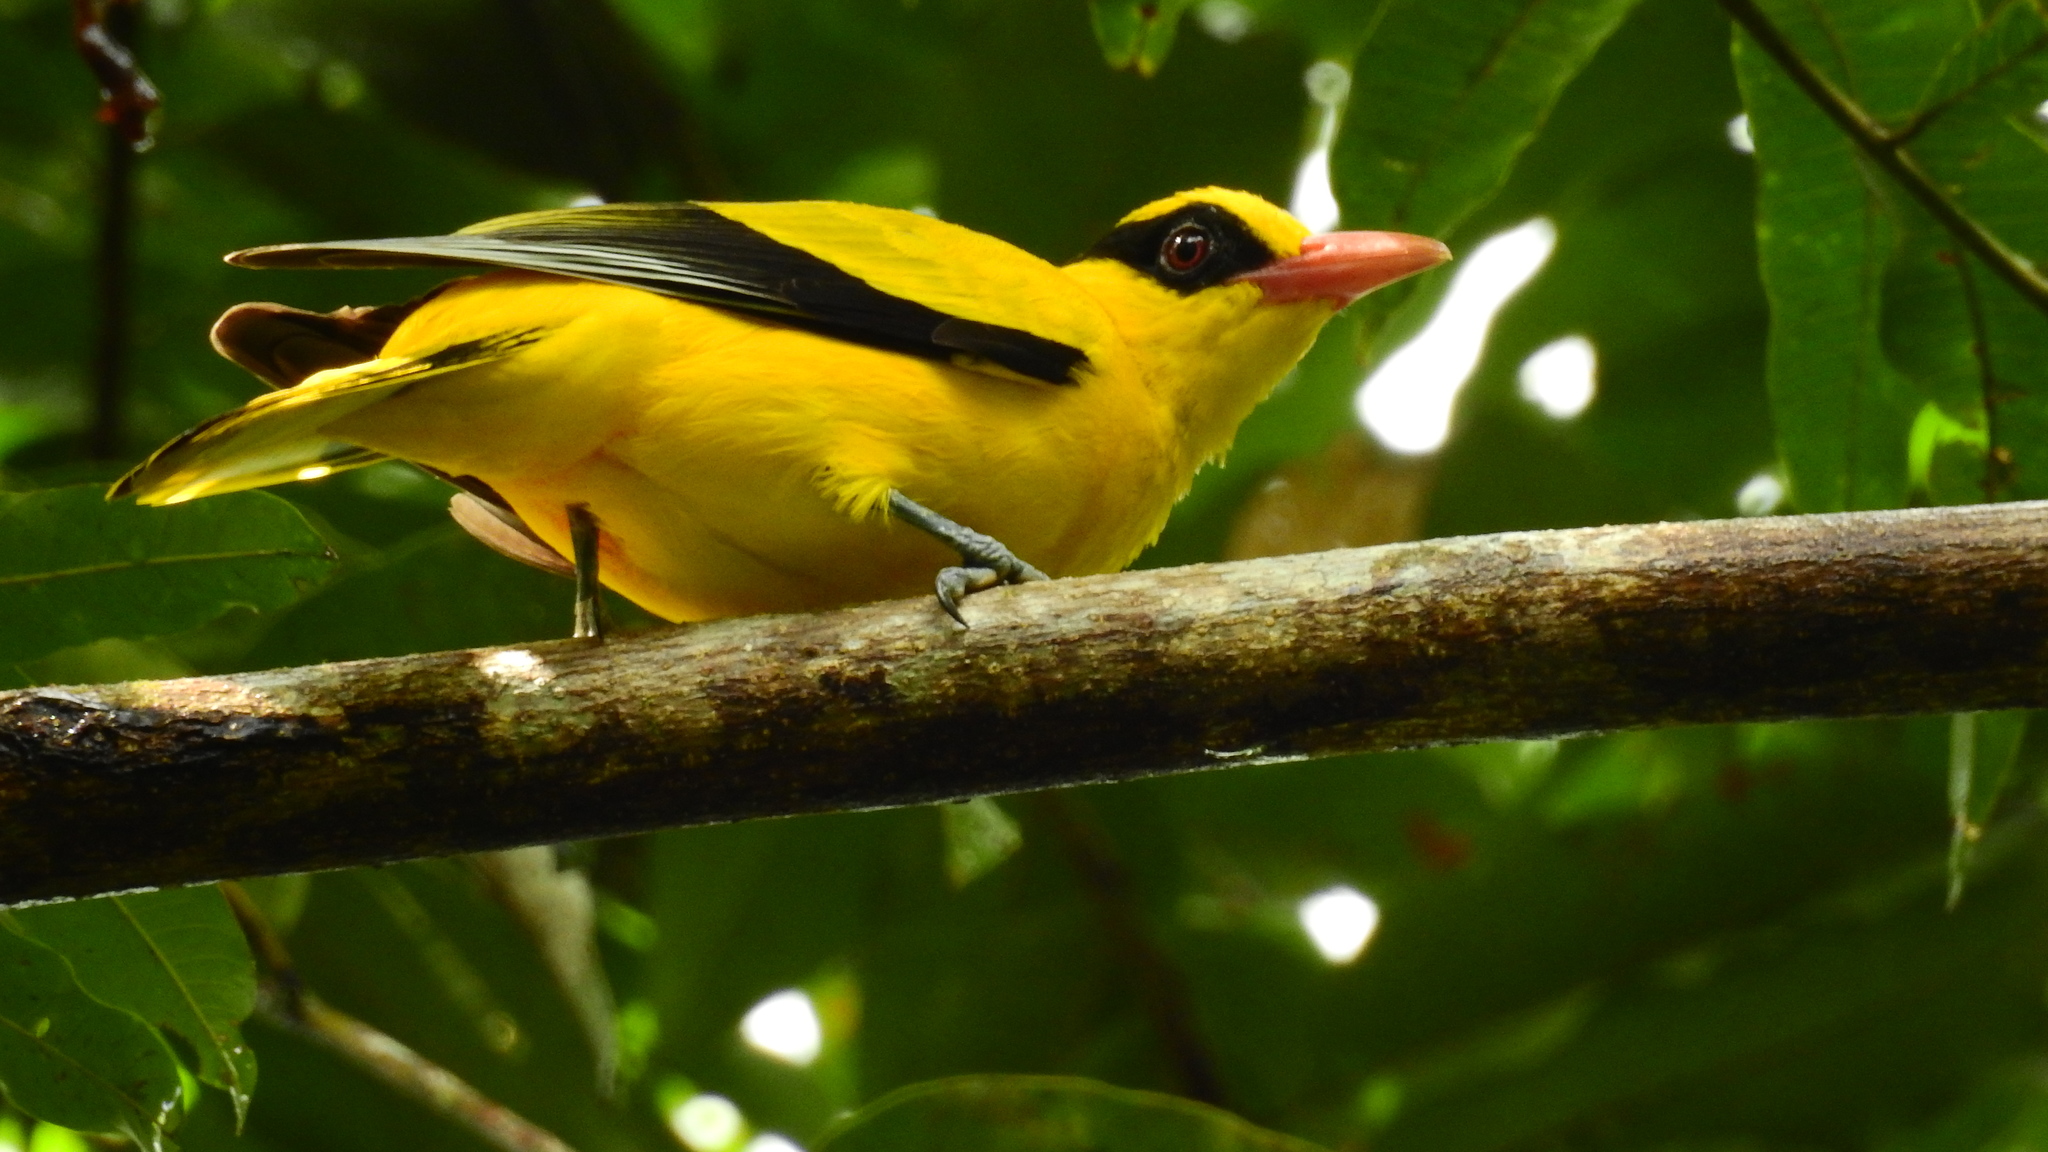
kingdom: Animalia
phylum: Chordata
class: Aves
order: Passeriformes
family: Oriolidae
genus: Oriolus
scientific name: Oriolus chinensis
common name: Black-naped oriole
